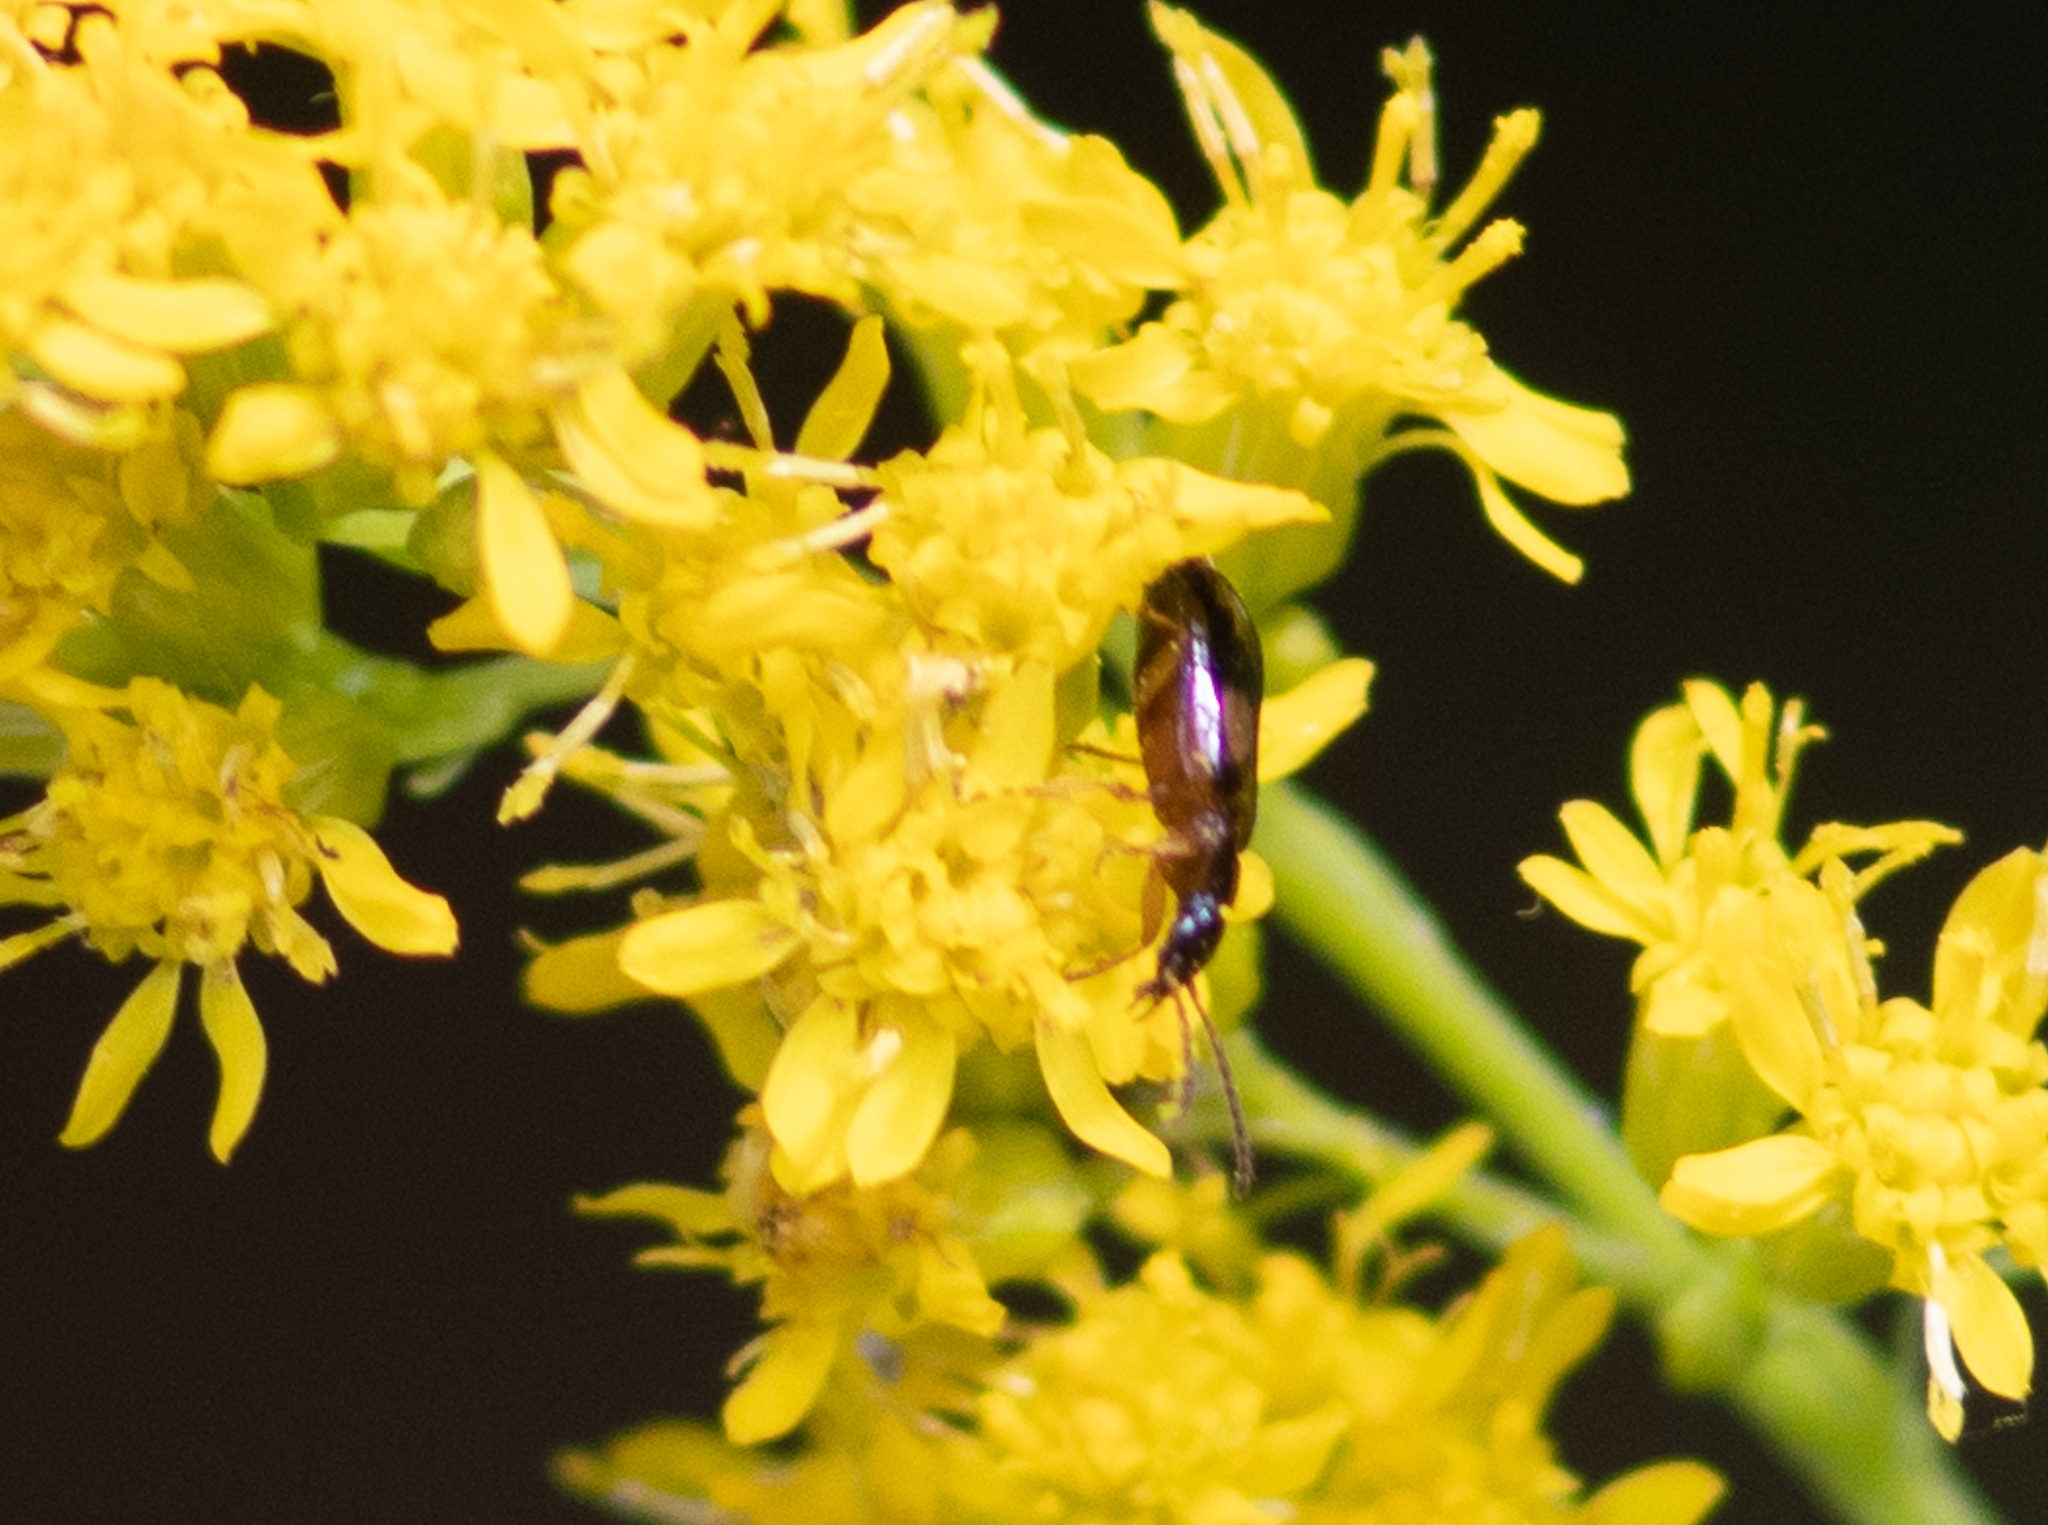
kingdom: Animalia
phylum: Arthropoda
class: Insecta
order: Coleoptera
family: Carabidae
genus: Lebia
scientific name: Lebia ornata
